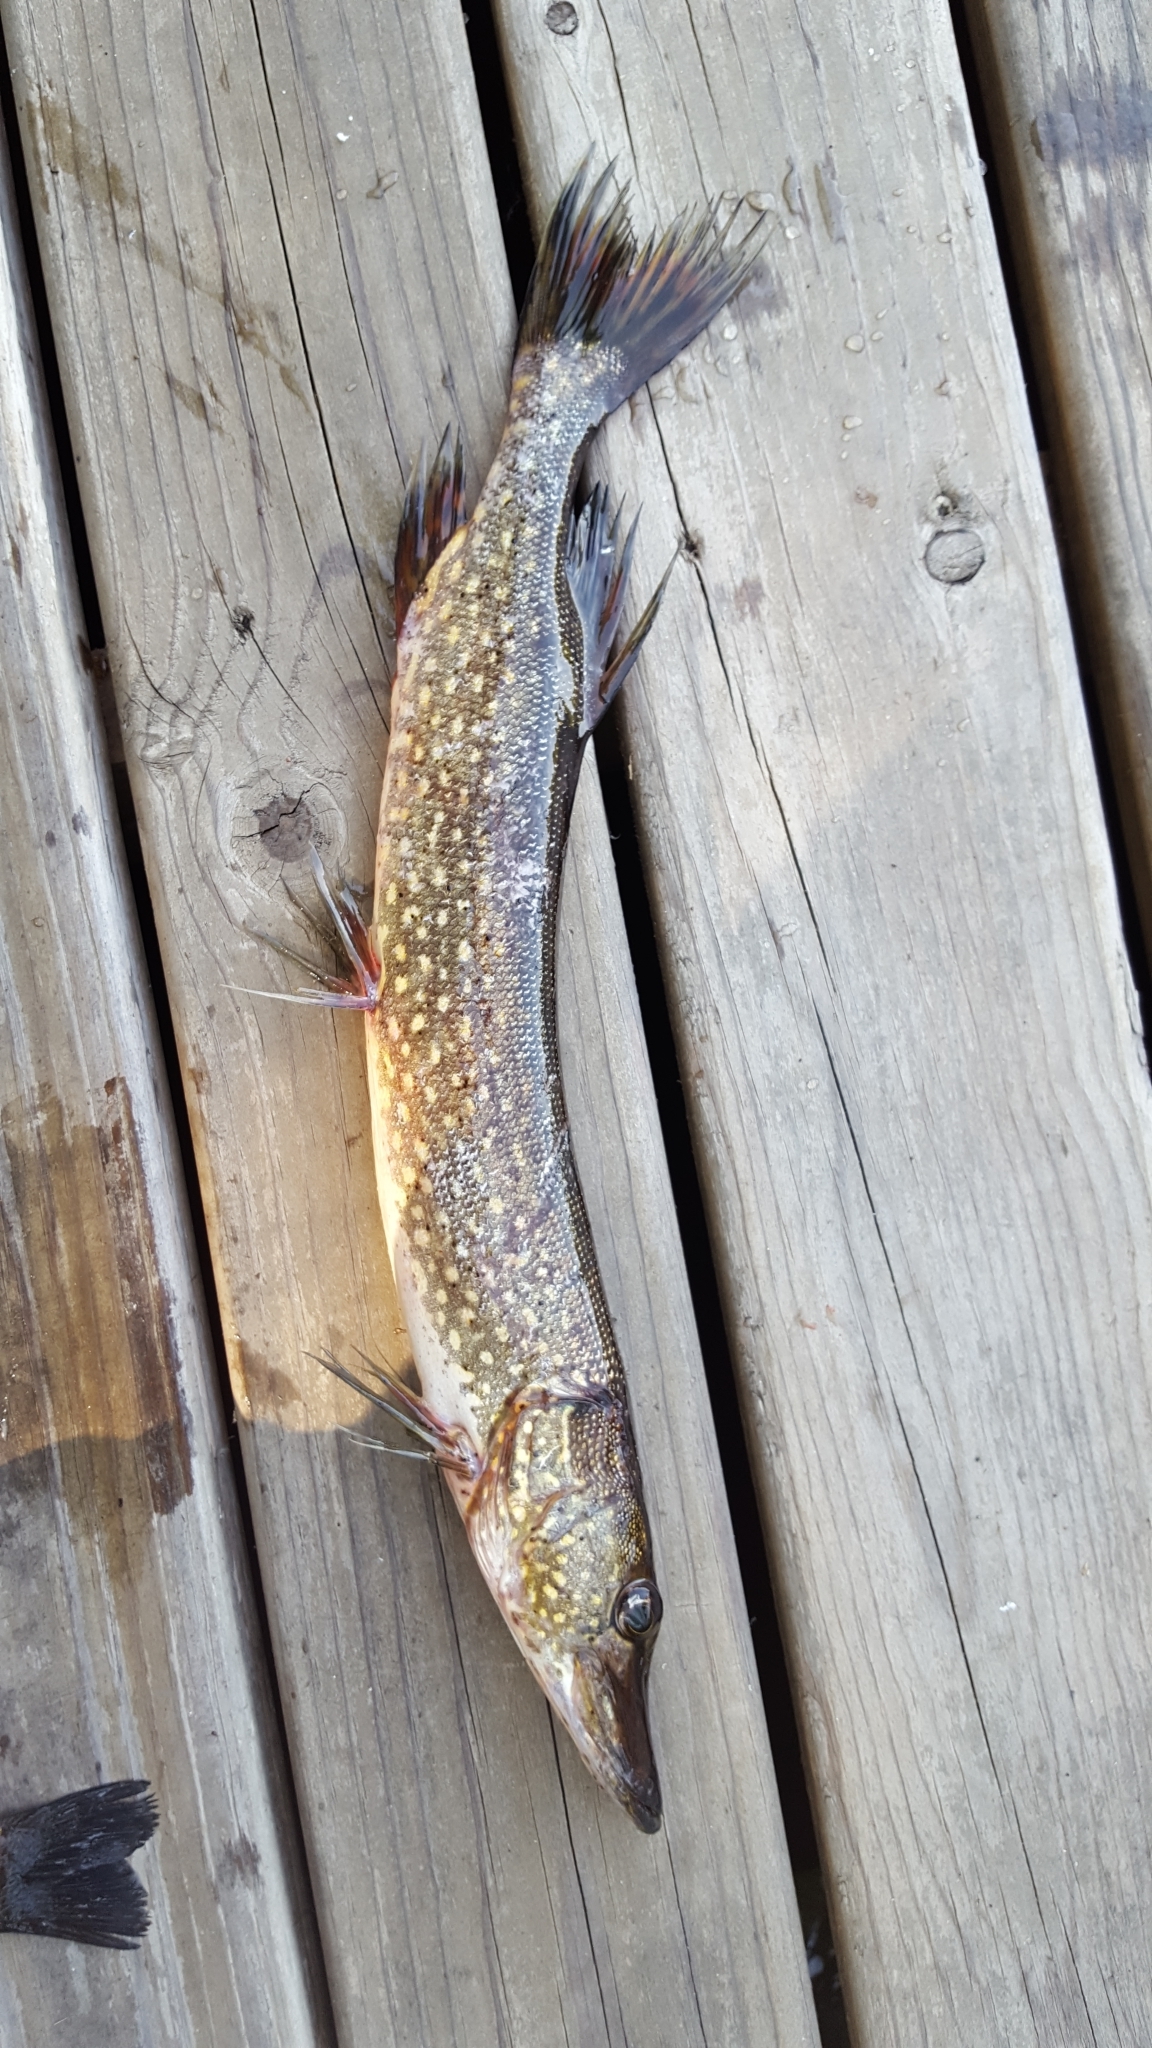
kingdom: Animalia
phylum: Chordata
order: Esociformes
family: Esocidae
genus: Esox
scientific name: Esox lucius
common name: Northern pike
